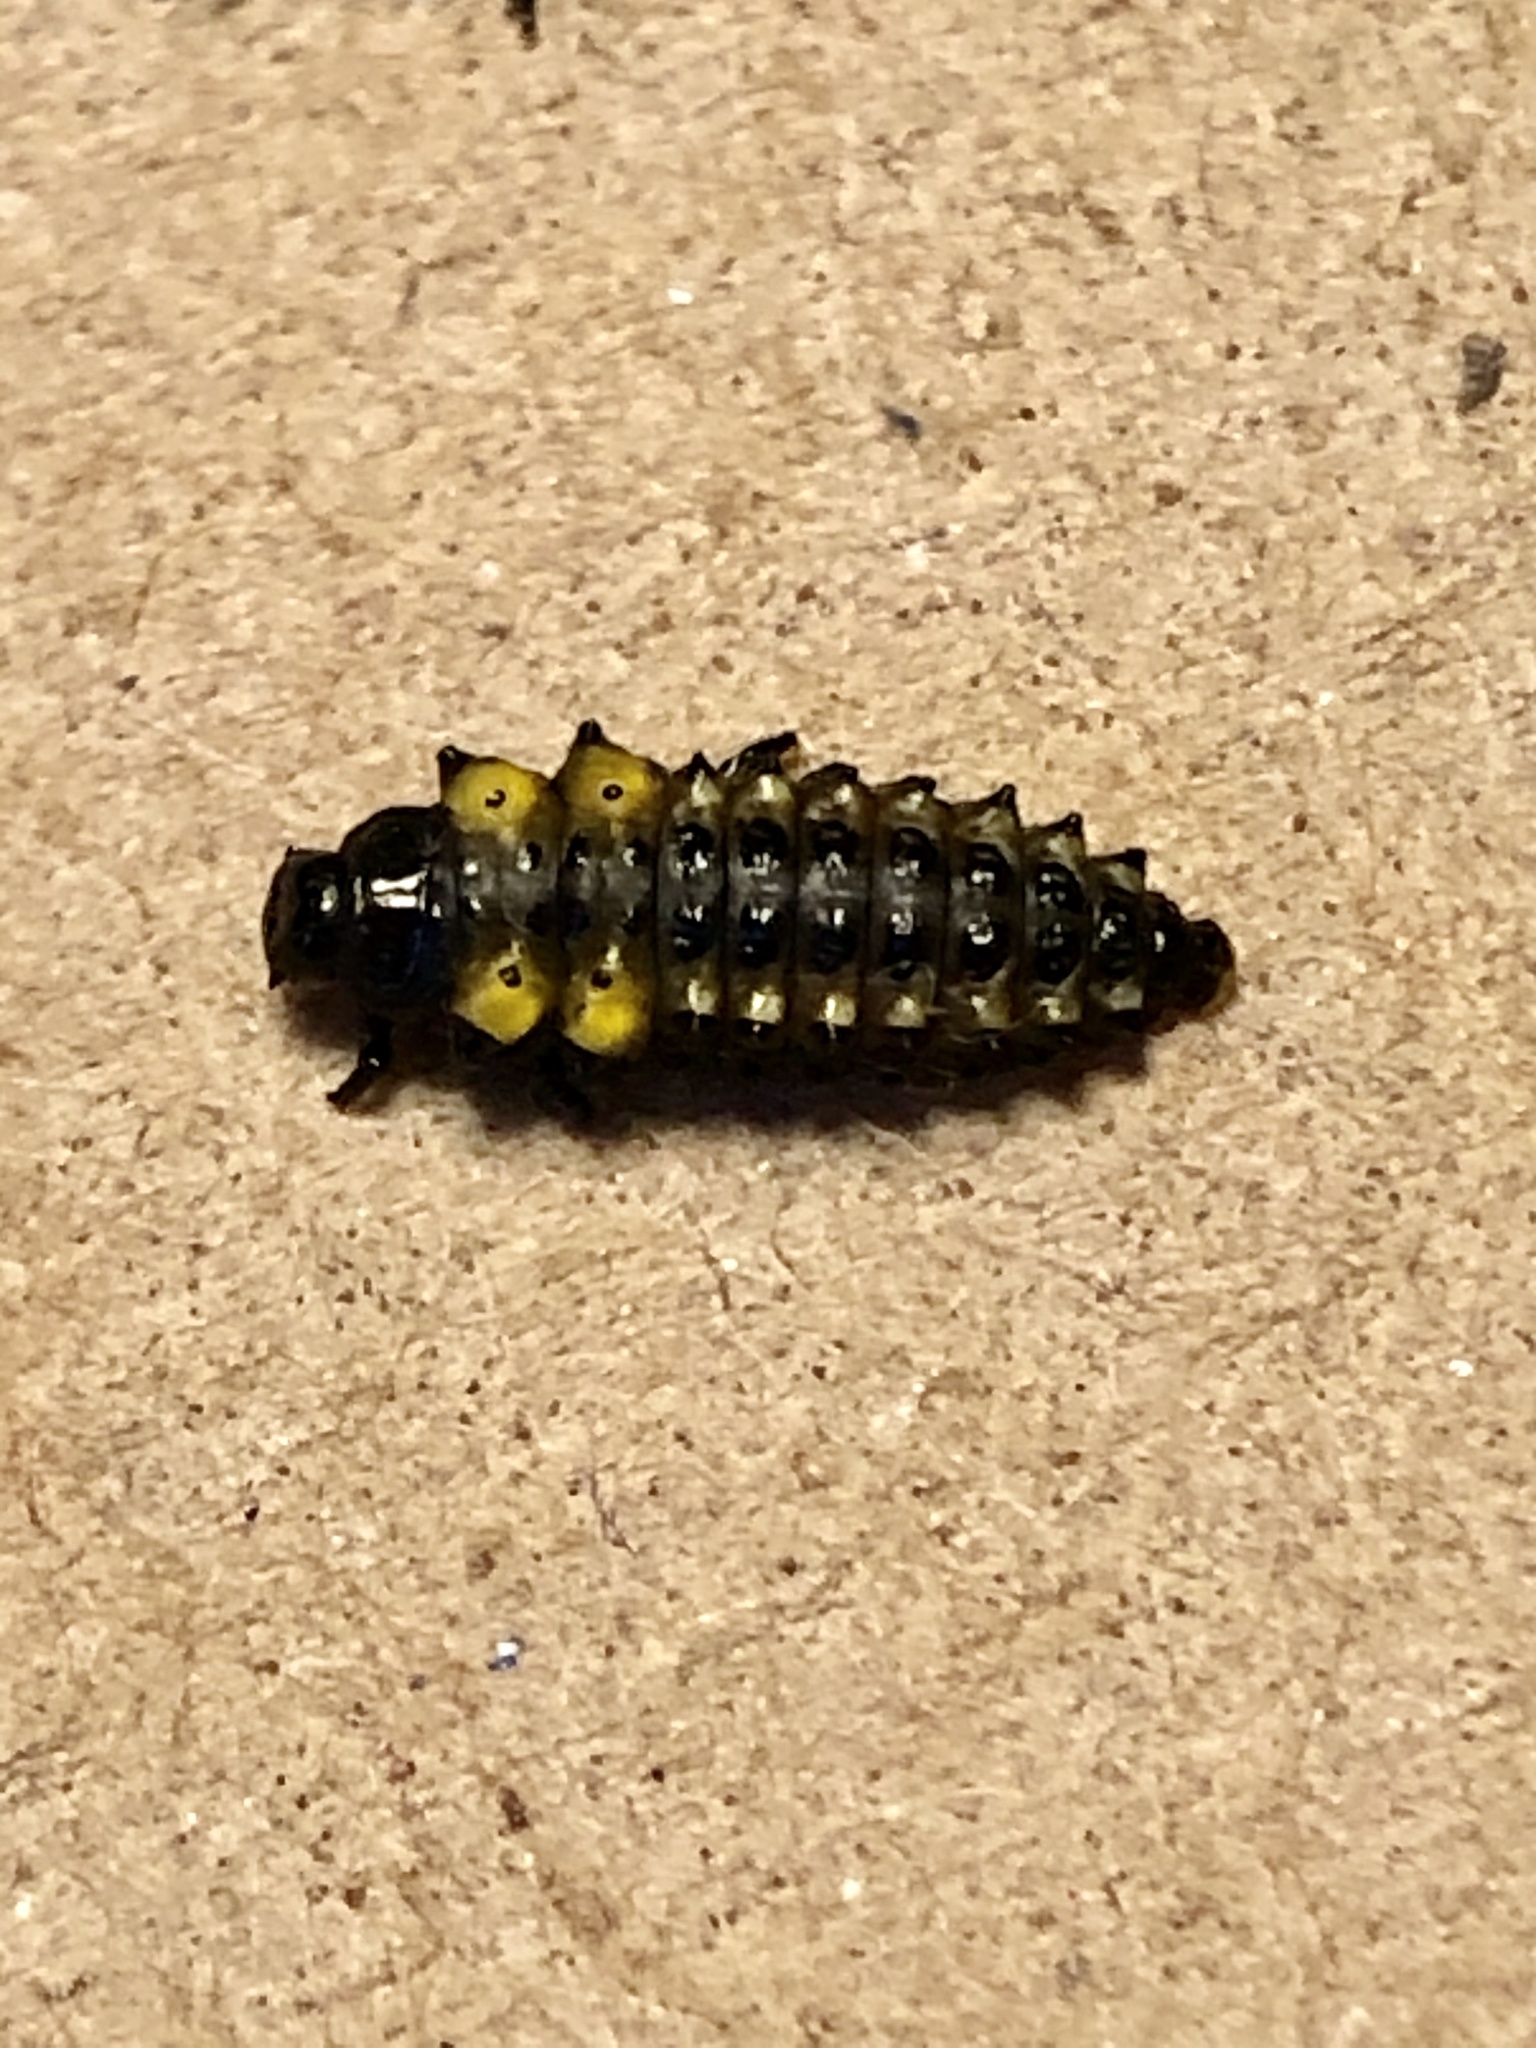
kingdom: Animalia
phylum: Arthropoda
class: Insecta
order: Coleoptera
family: Chrysomelidae
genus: Chrysomela
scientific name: Chrysomela confluens
